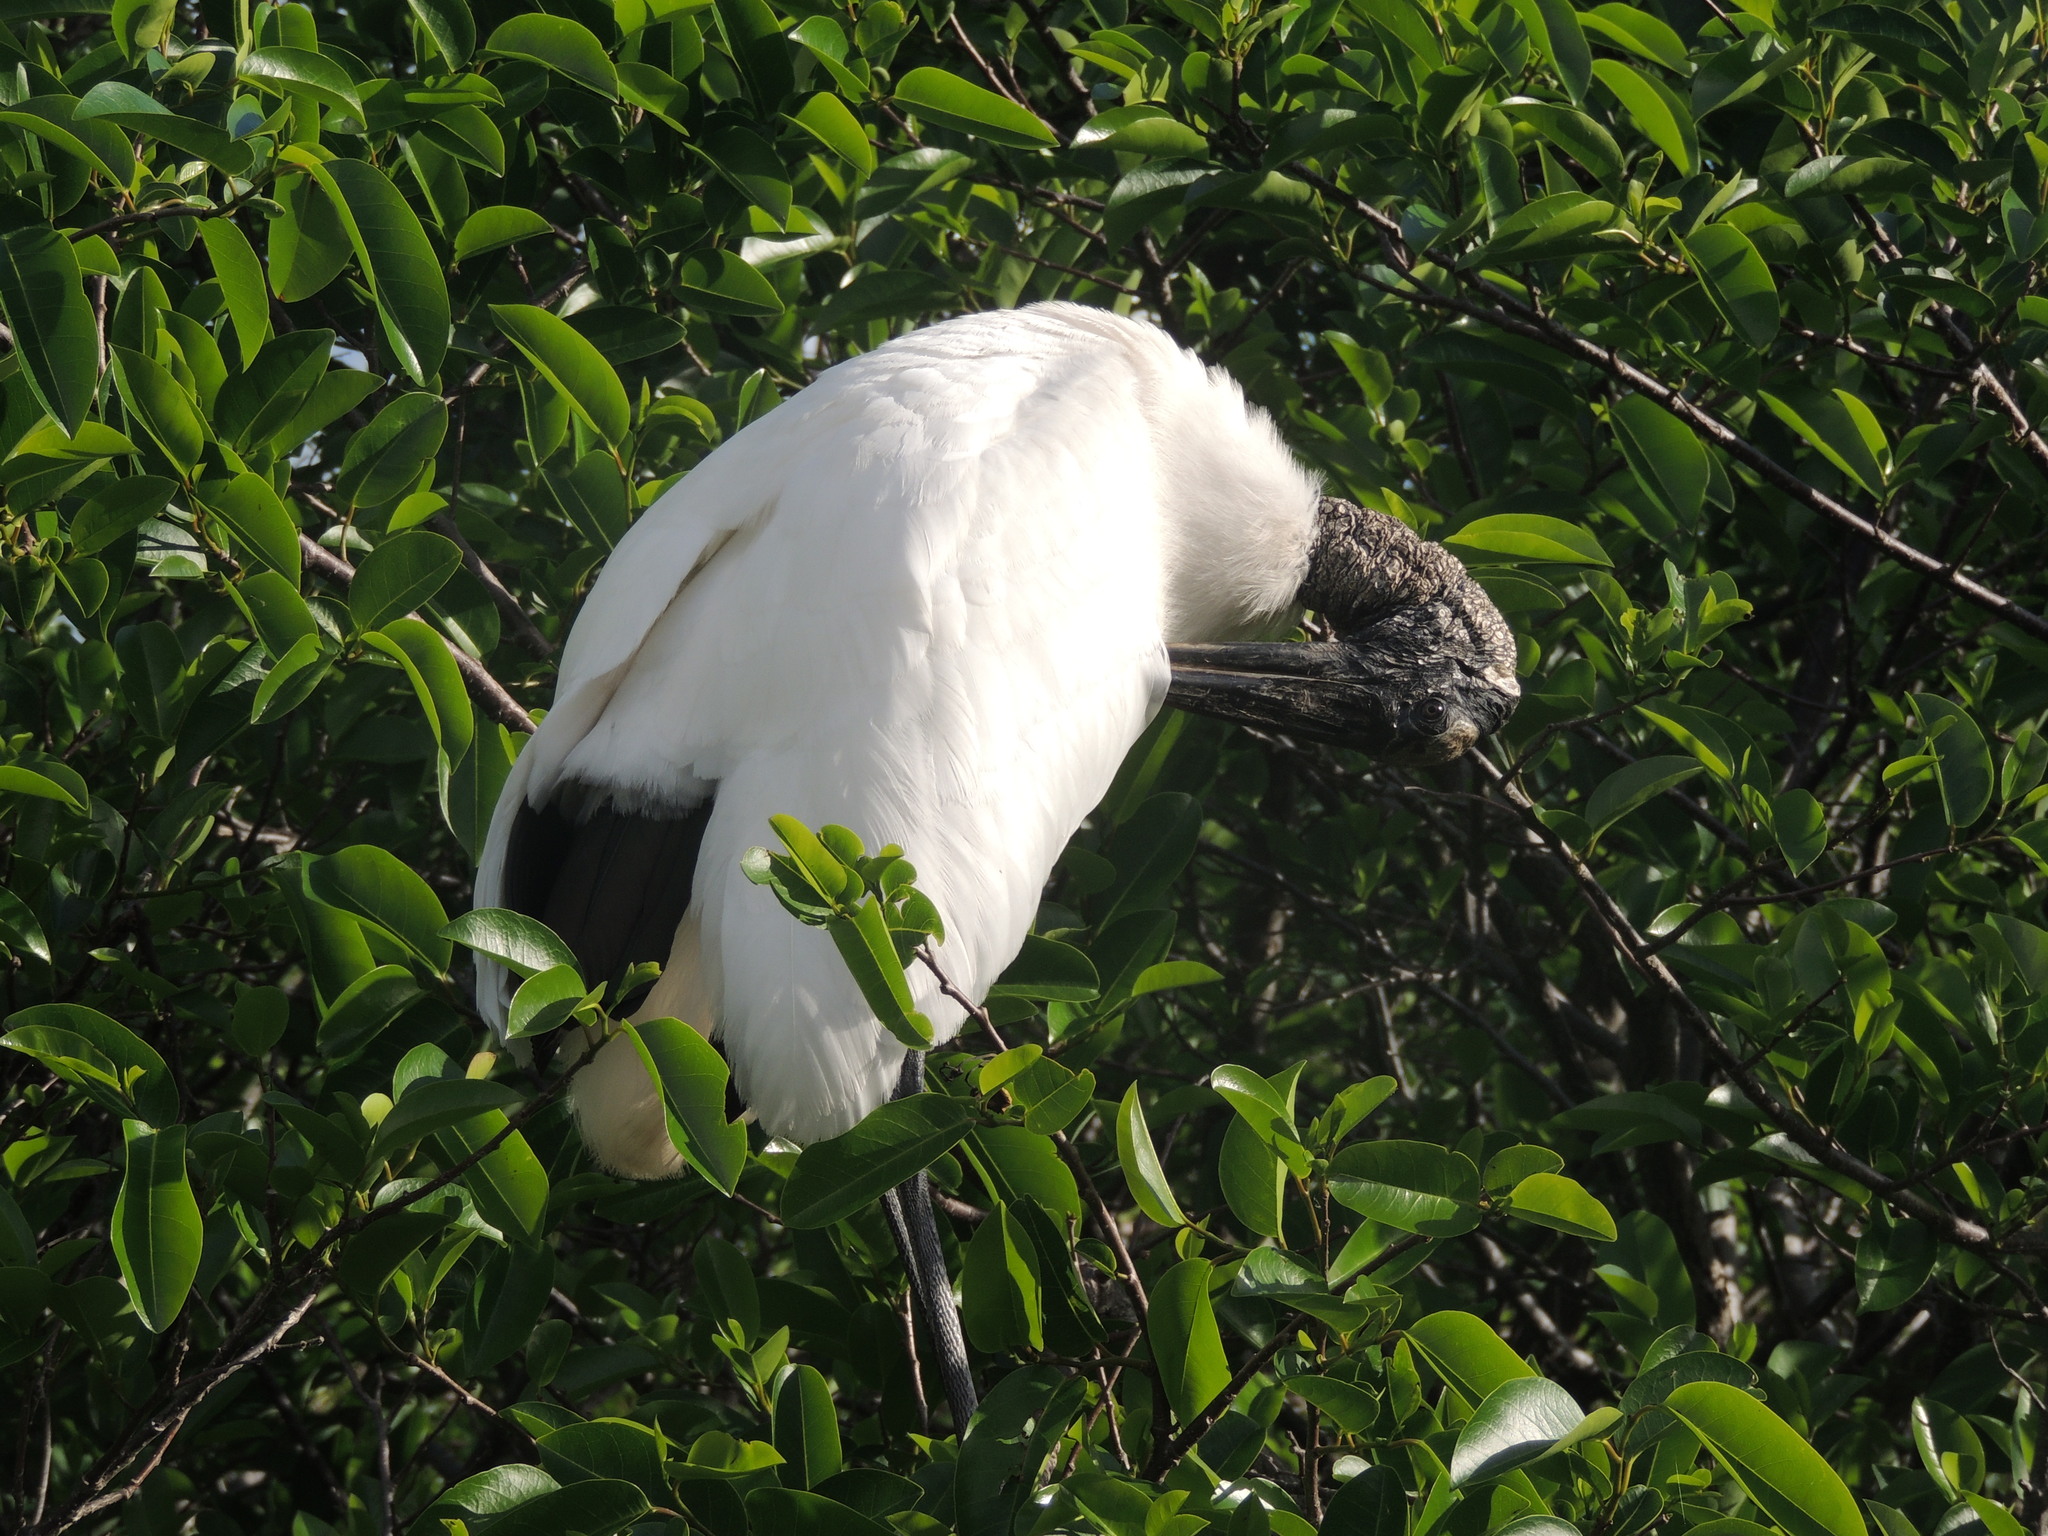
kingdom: Animalia
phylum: Chordata
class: Aves
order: Ciconiiformes
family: Ciconiidae
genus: Mycteria
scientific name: Mycteria americana
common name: Wood stork
